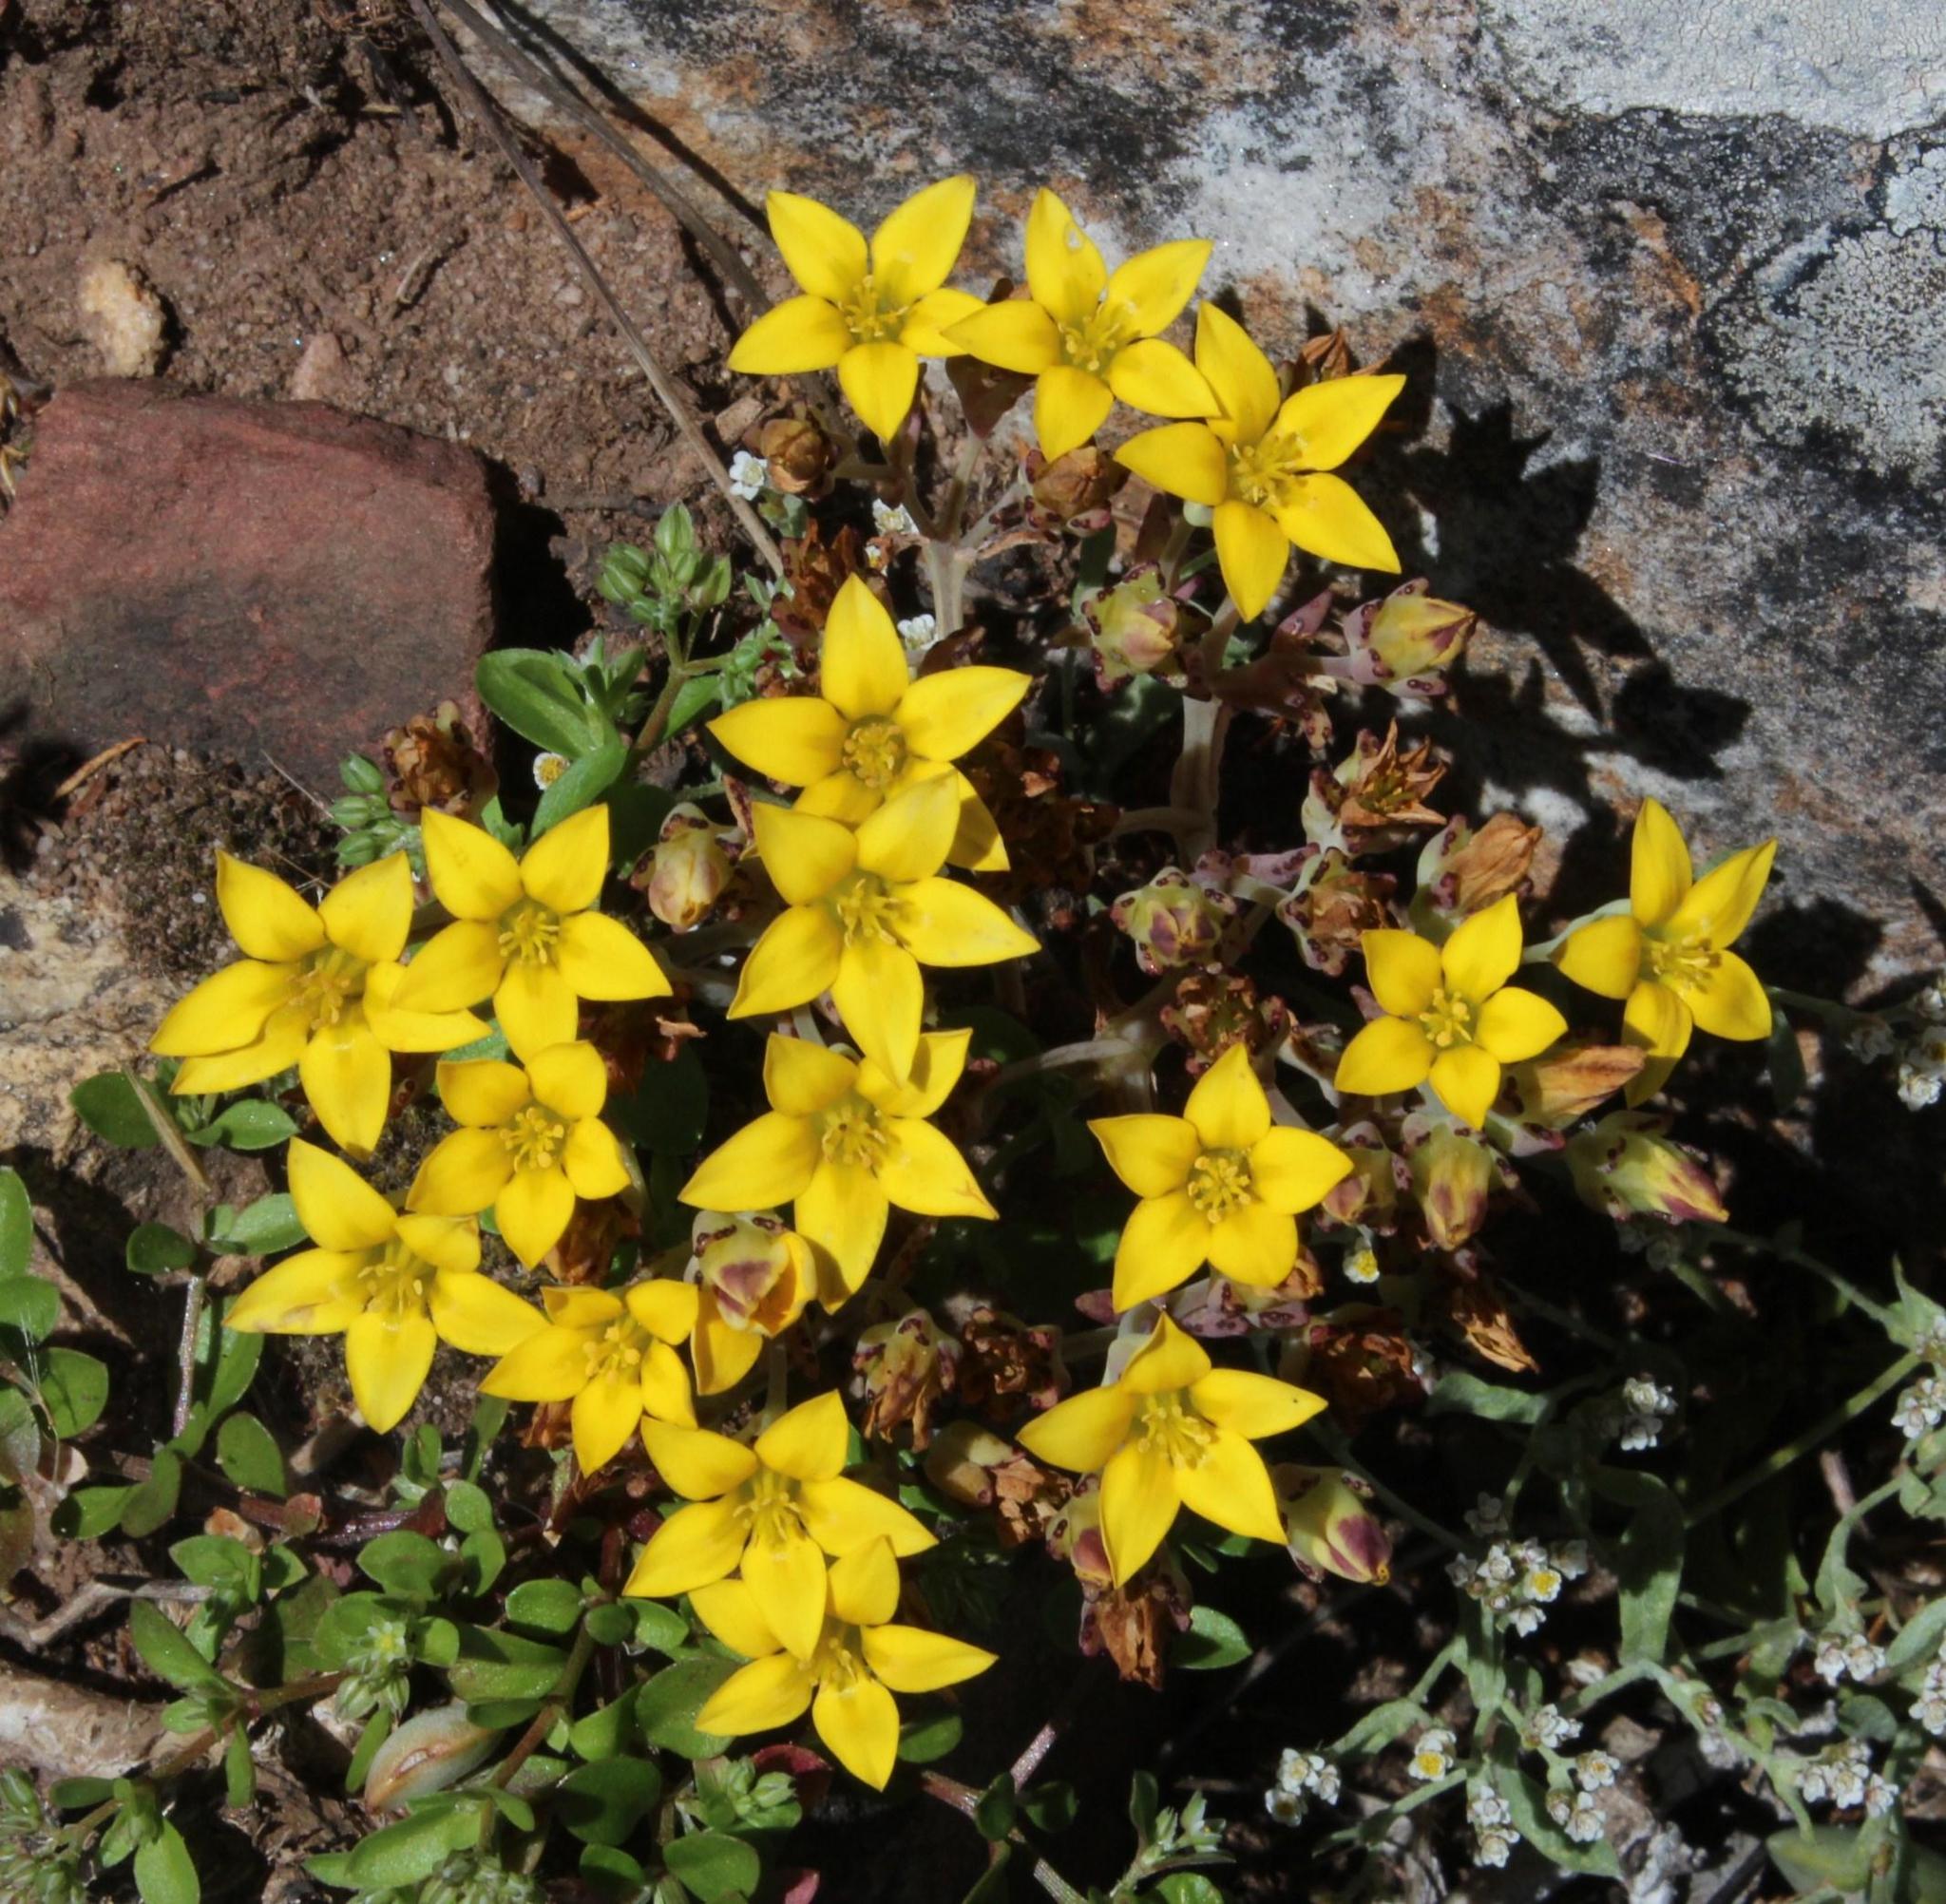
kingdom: Plantae
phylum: Tracheophyta
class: Magnoliopsida
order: Saxifragales
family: Crassulaceae
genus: Crassula
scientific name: Crassula dichotoma
